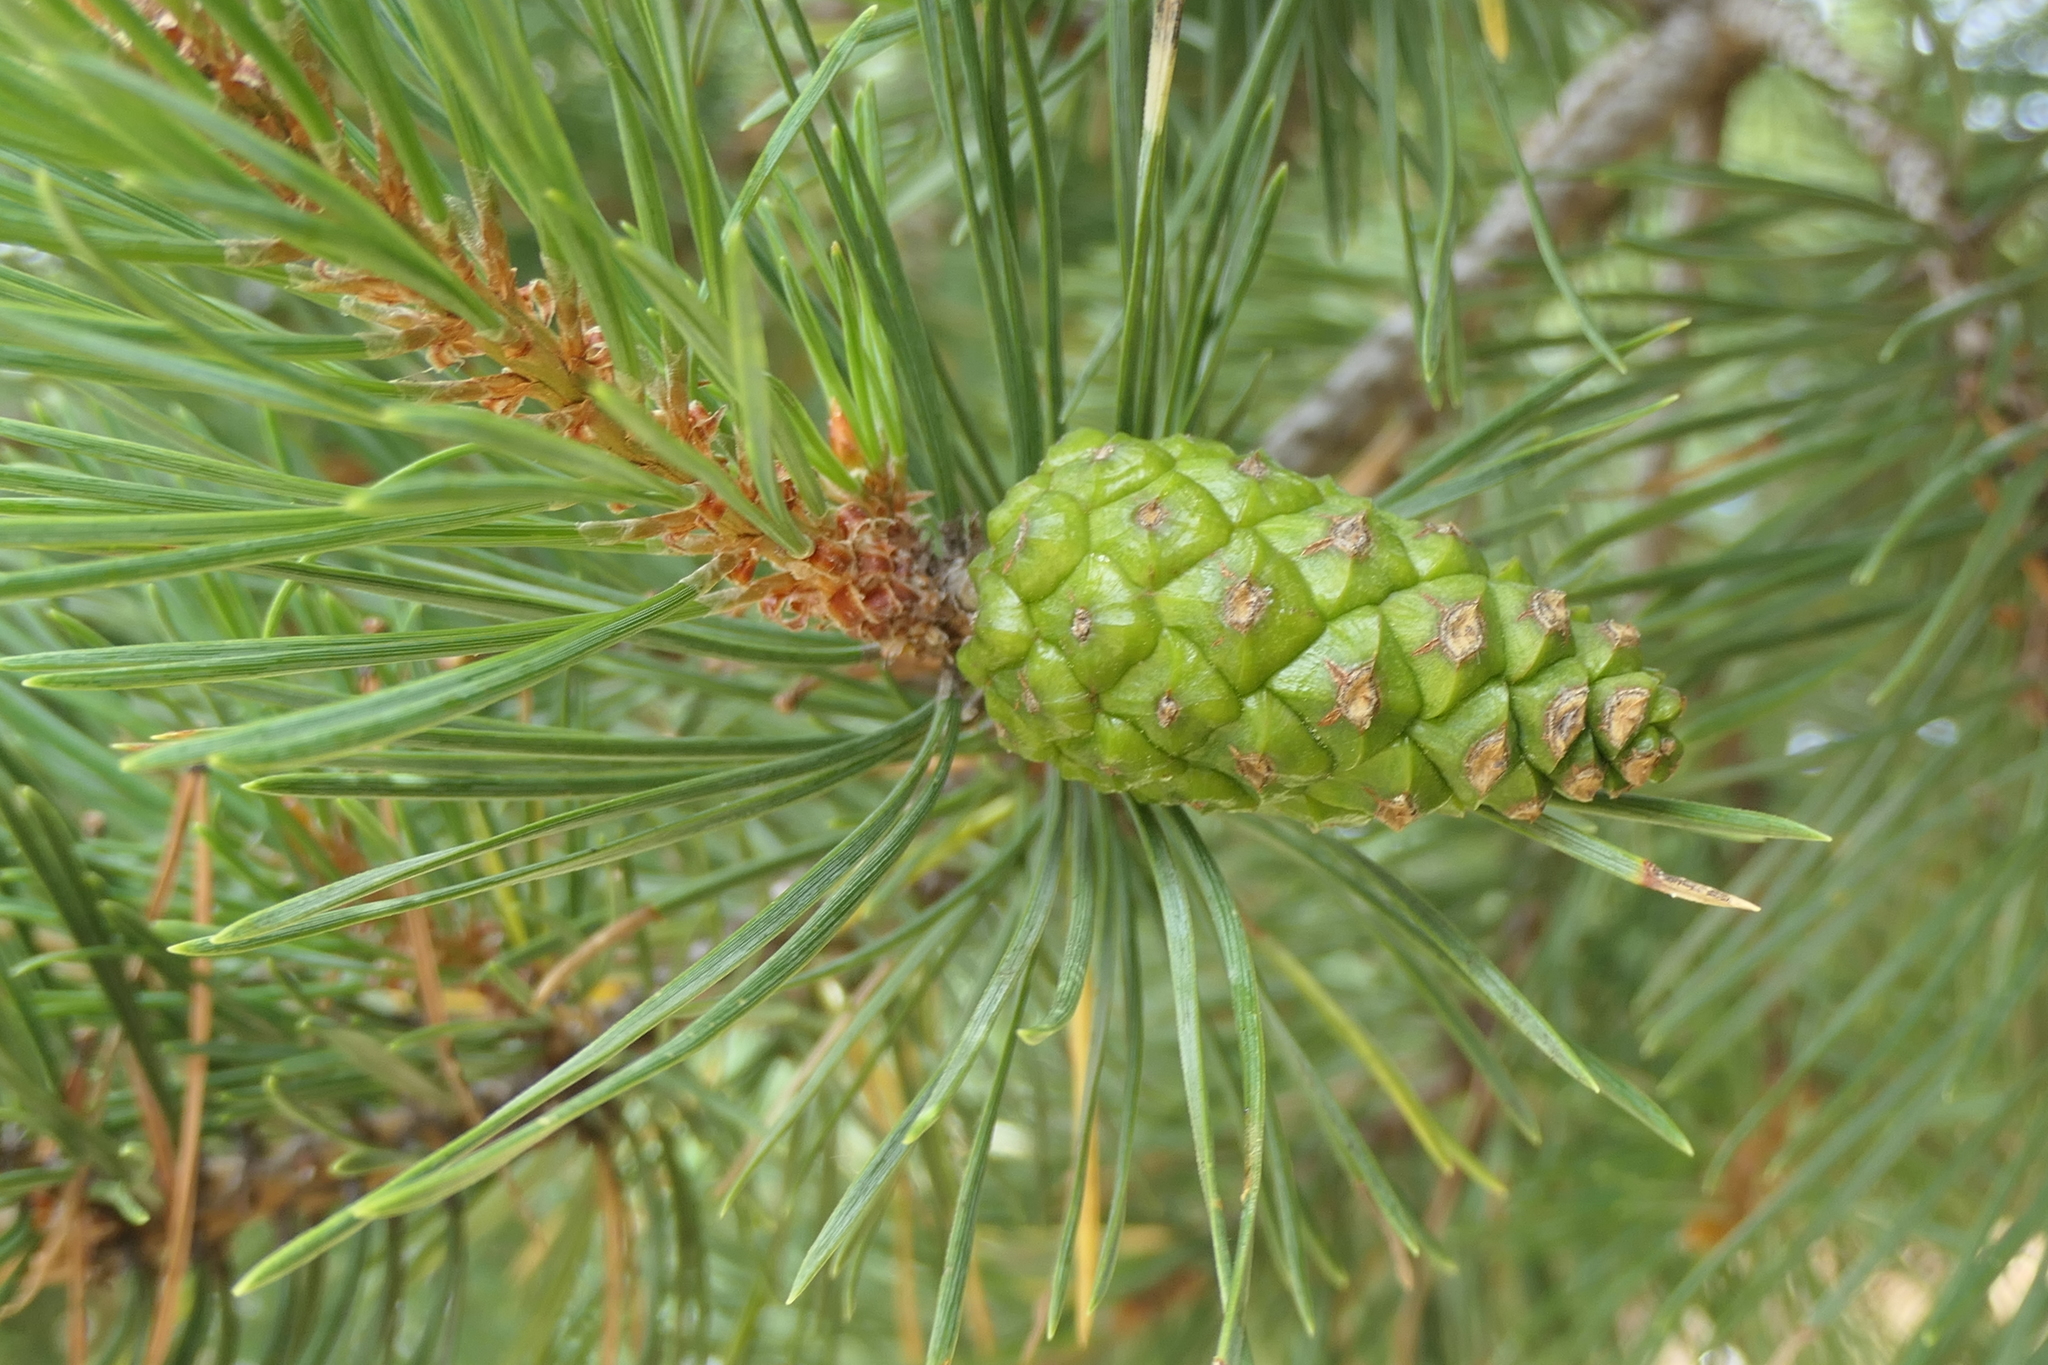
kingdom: Plantae
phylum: Tracheophyta
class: Pinopsida
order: Pinales
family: Pinaceae
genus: Pinus
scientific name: Pinus sylvestris
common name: Scots pine
